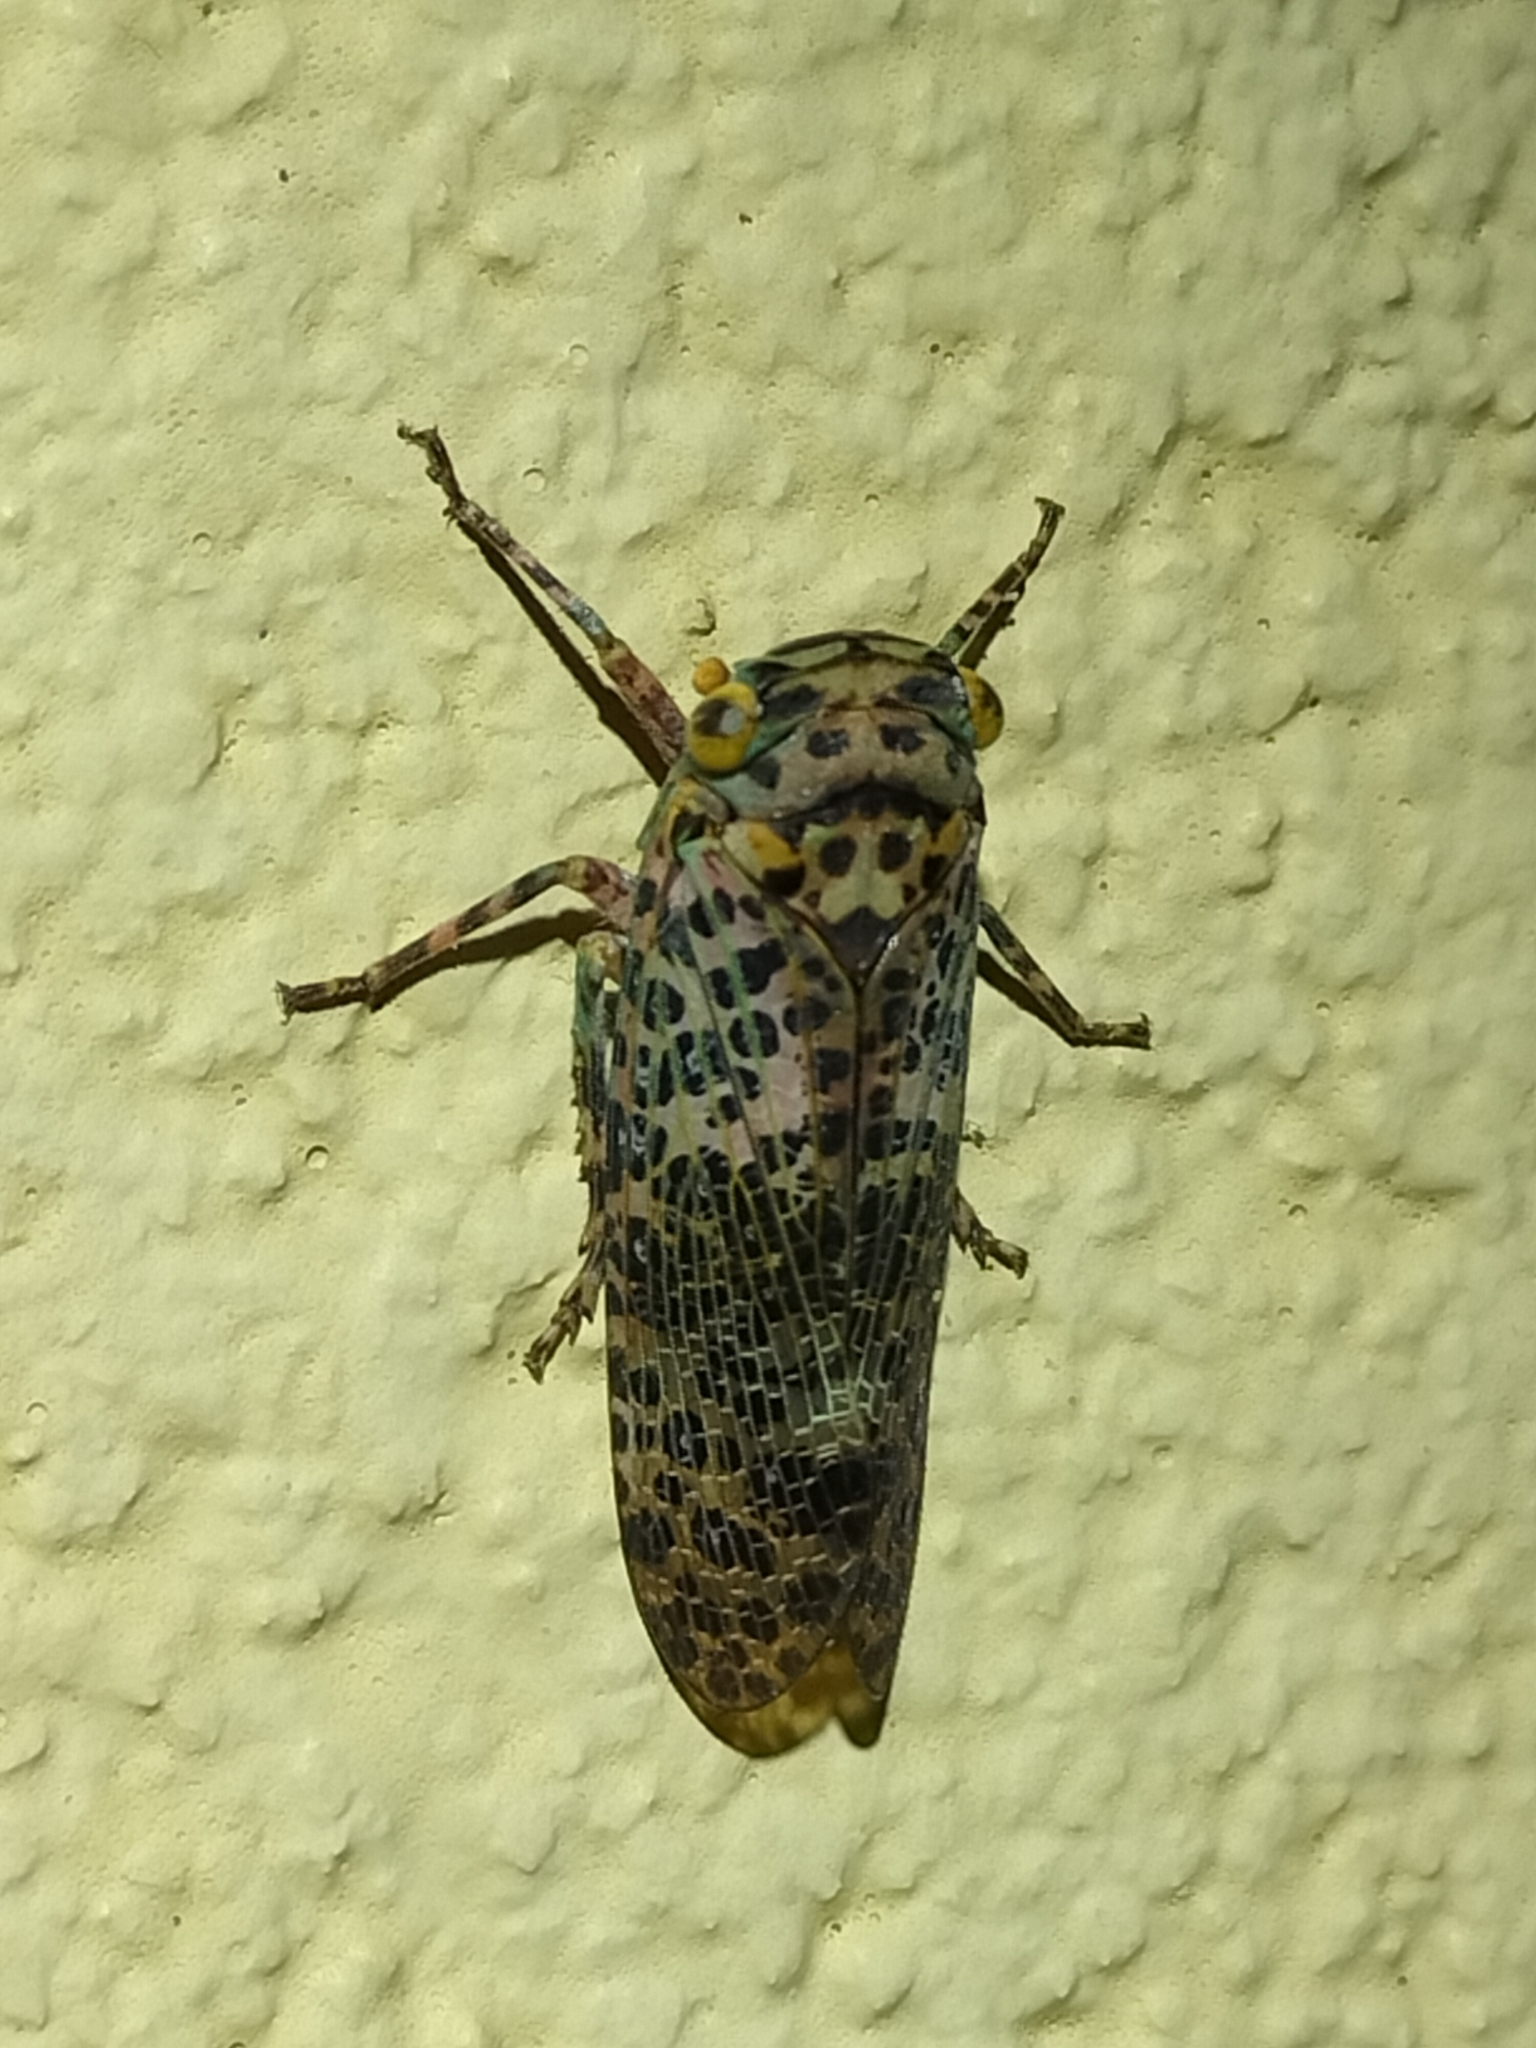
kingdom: Animalia
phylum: Arthropoda
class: Insecta
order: Hemiptera
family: Fulgoridae
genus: Desudaboides
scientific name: Desudaboides fuscomaculata
